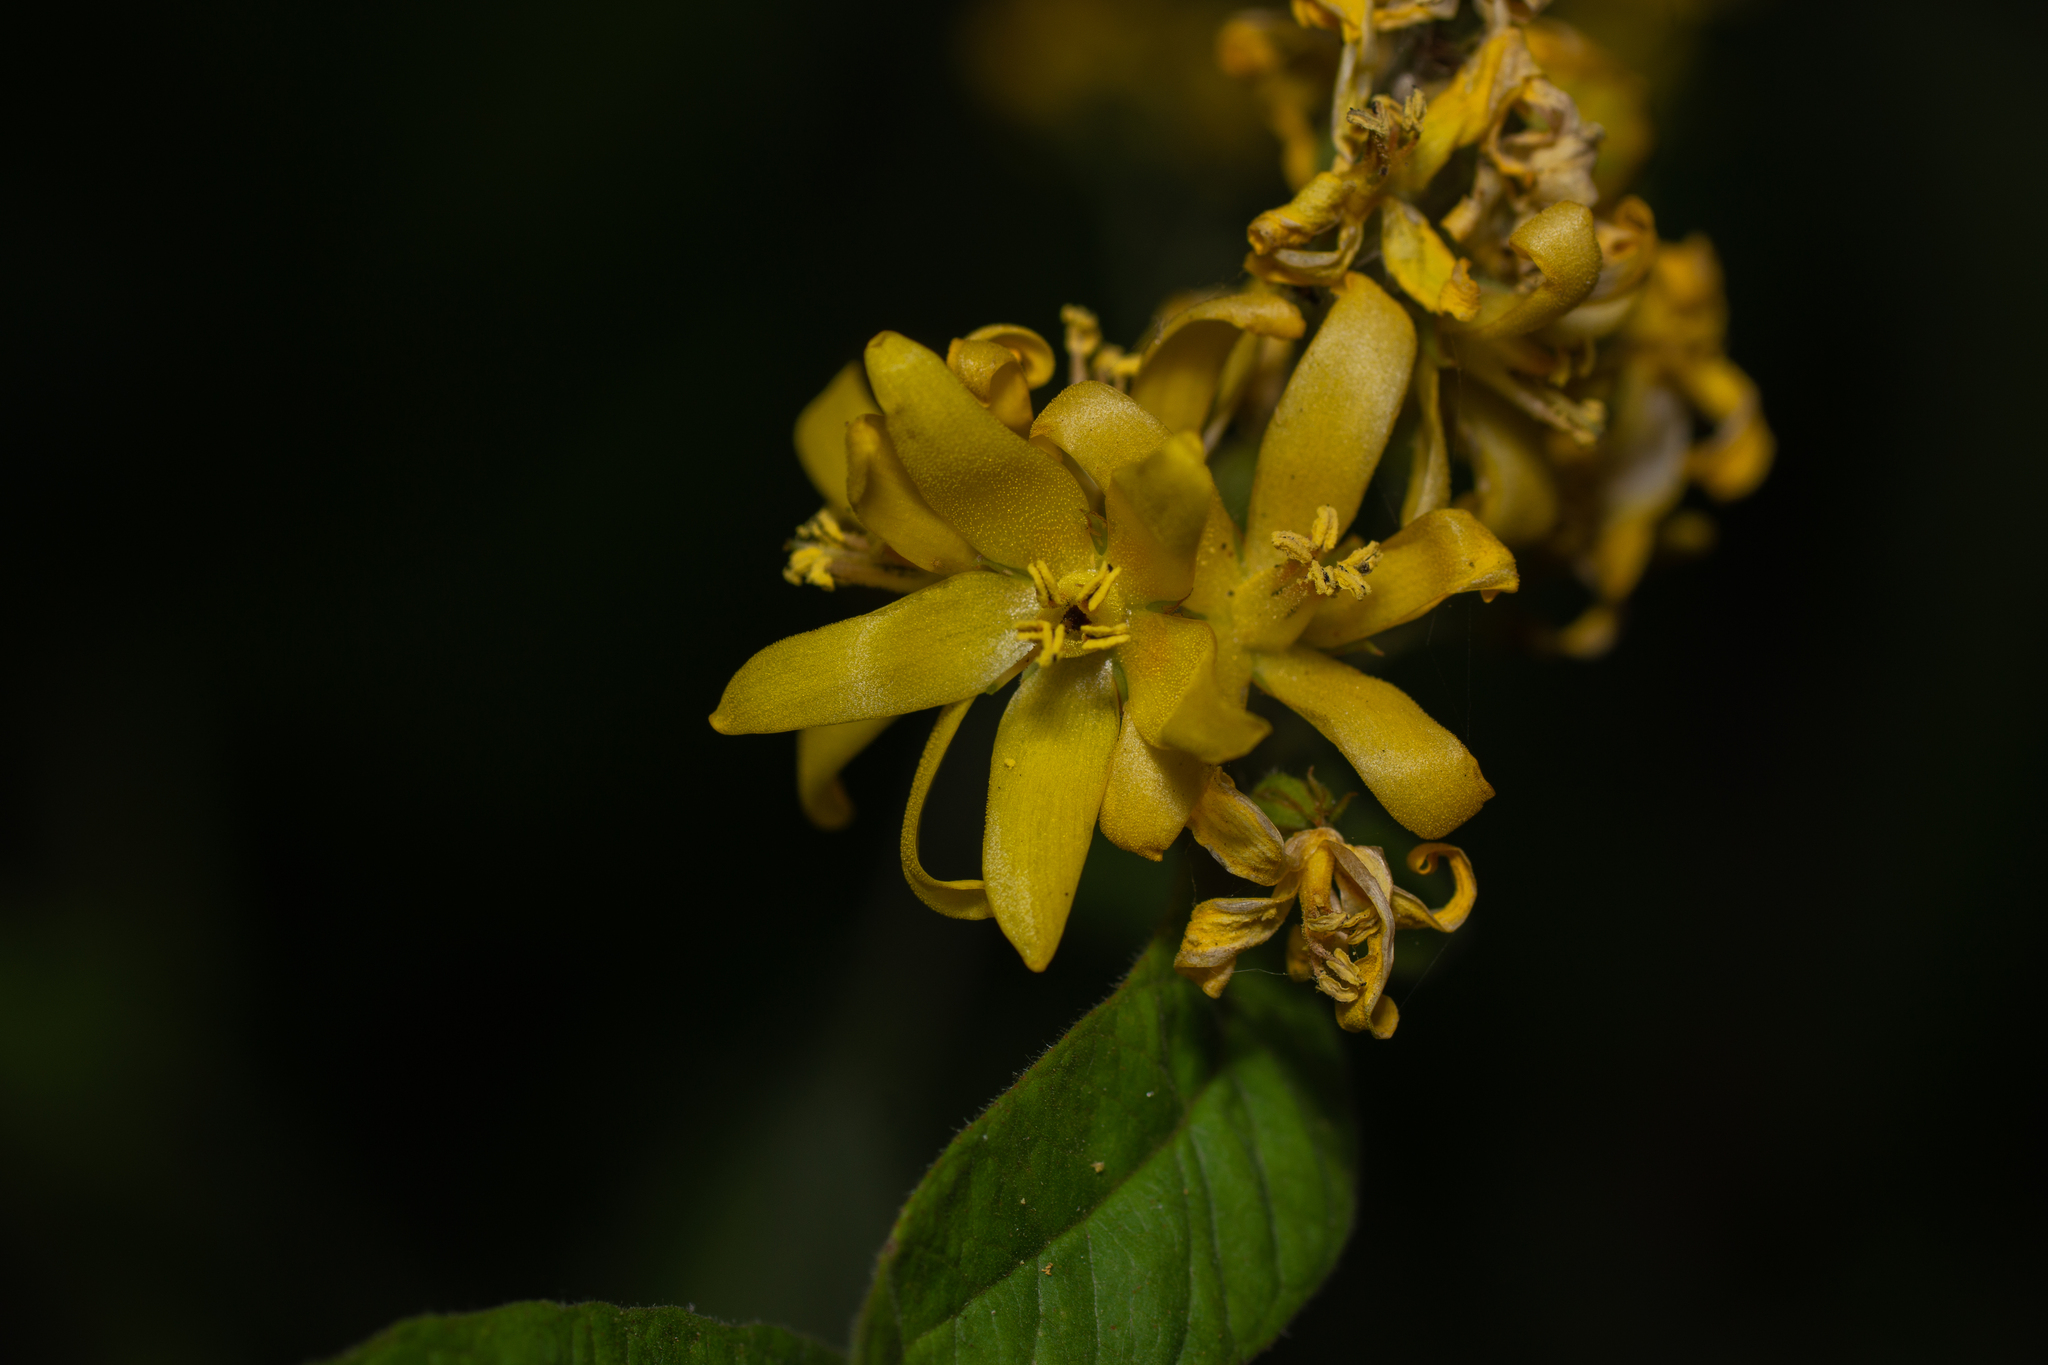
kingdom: Plantae
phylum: Tracheophyta
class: Magnoliopsida
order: Ericales
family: Primulaceae
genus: Lysimachia
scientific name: Lysimachia vulgaris
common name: Yellow loosestrife
